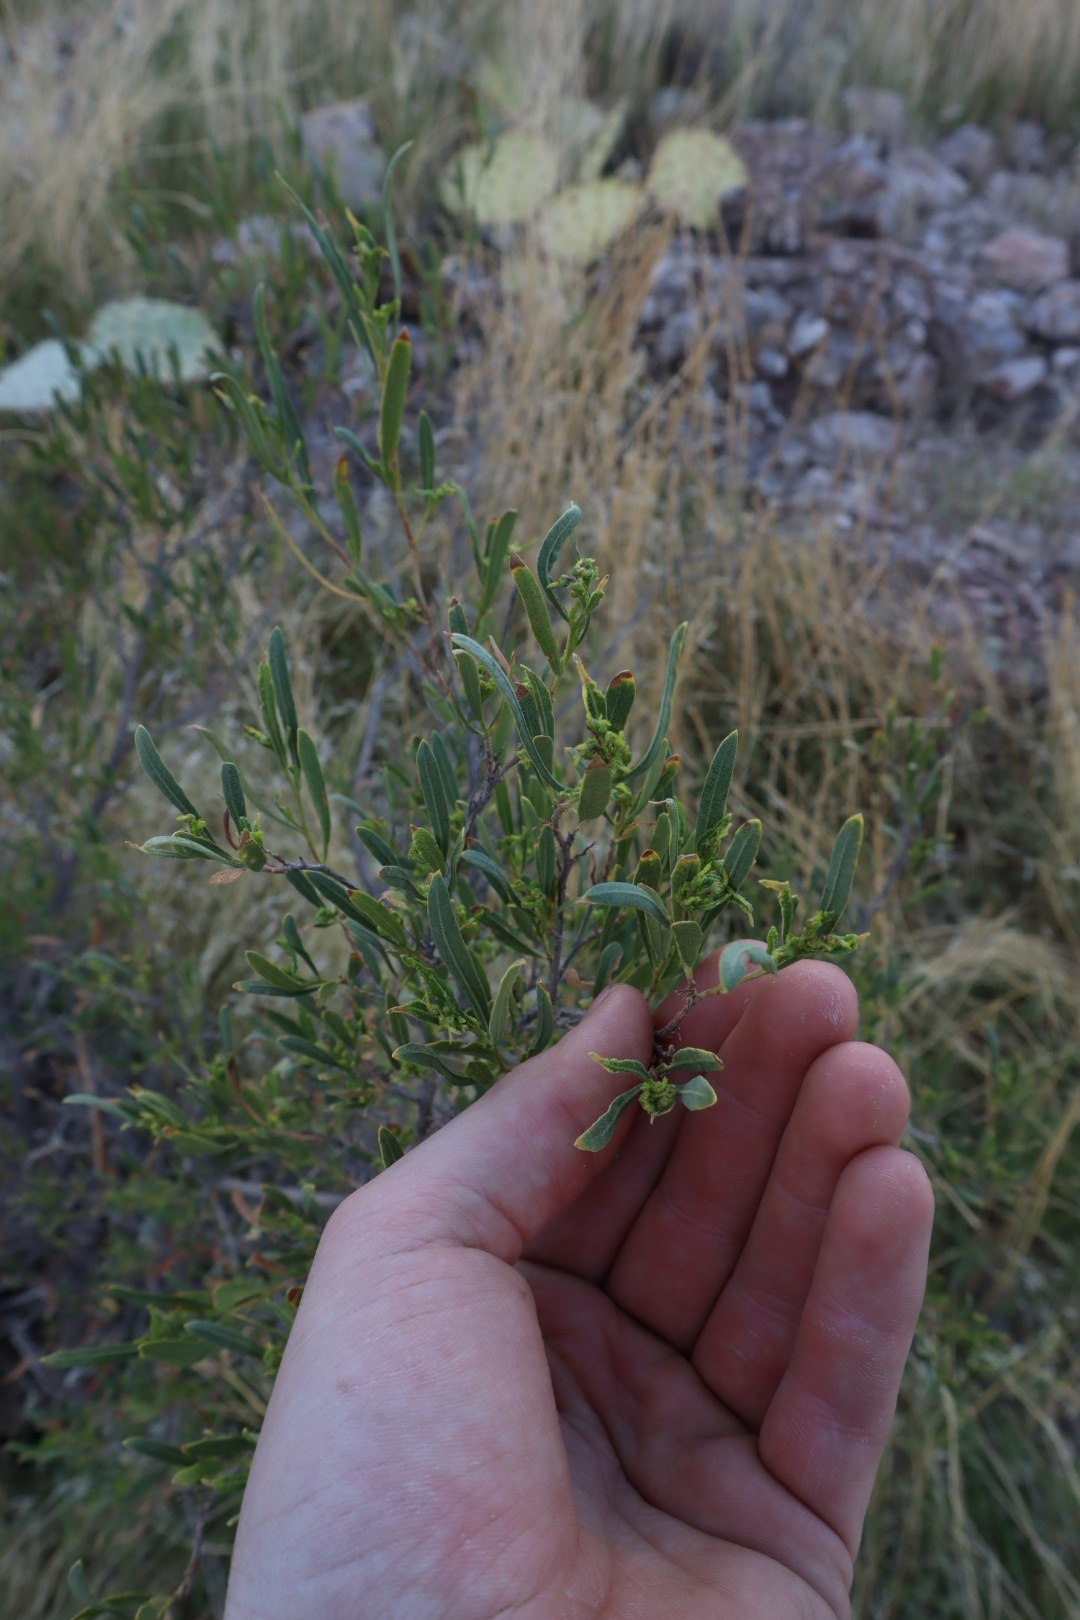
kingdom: Plantae
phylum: Tracheophyta
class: Magnoliopsida
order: Sapindales
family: Sapindaceae
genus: Dodonaea
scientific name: Dodonaea viscosa
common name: Hopbush
